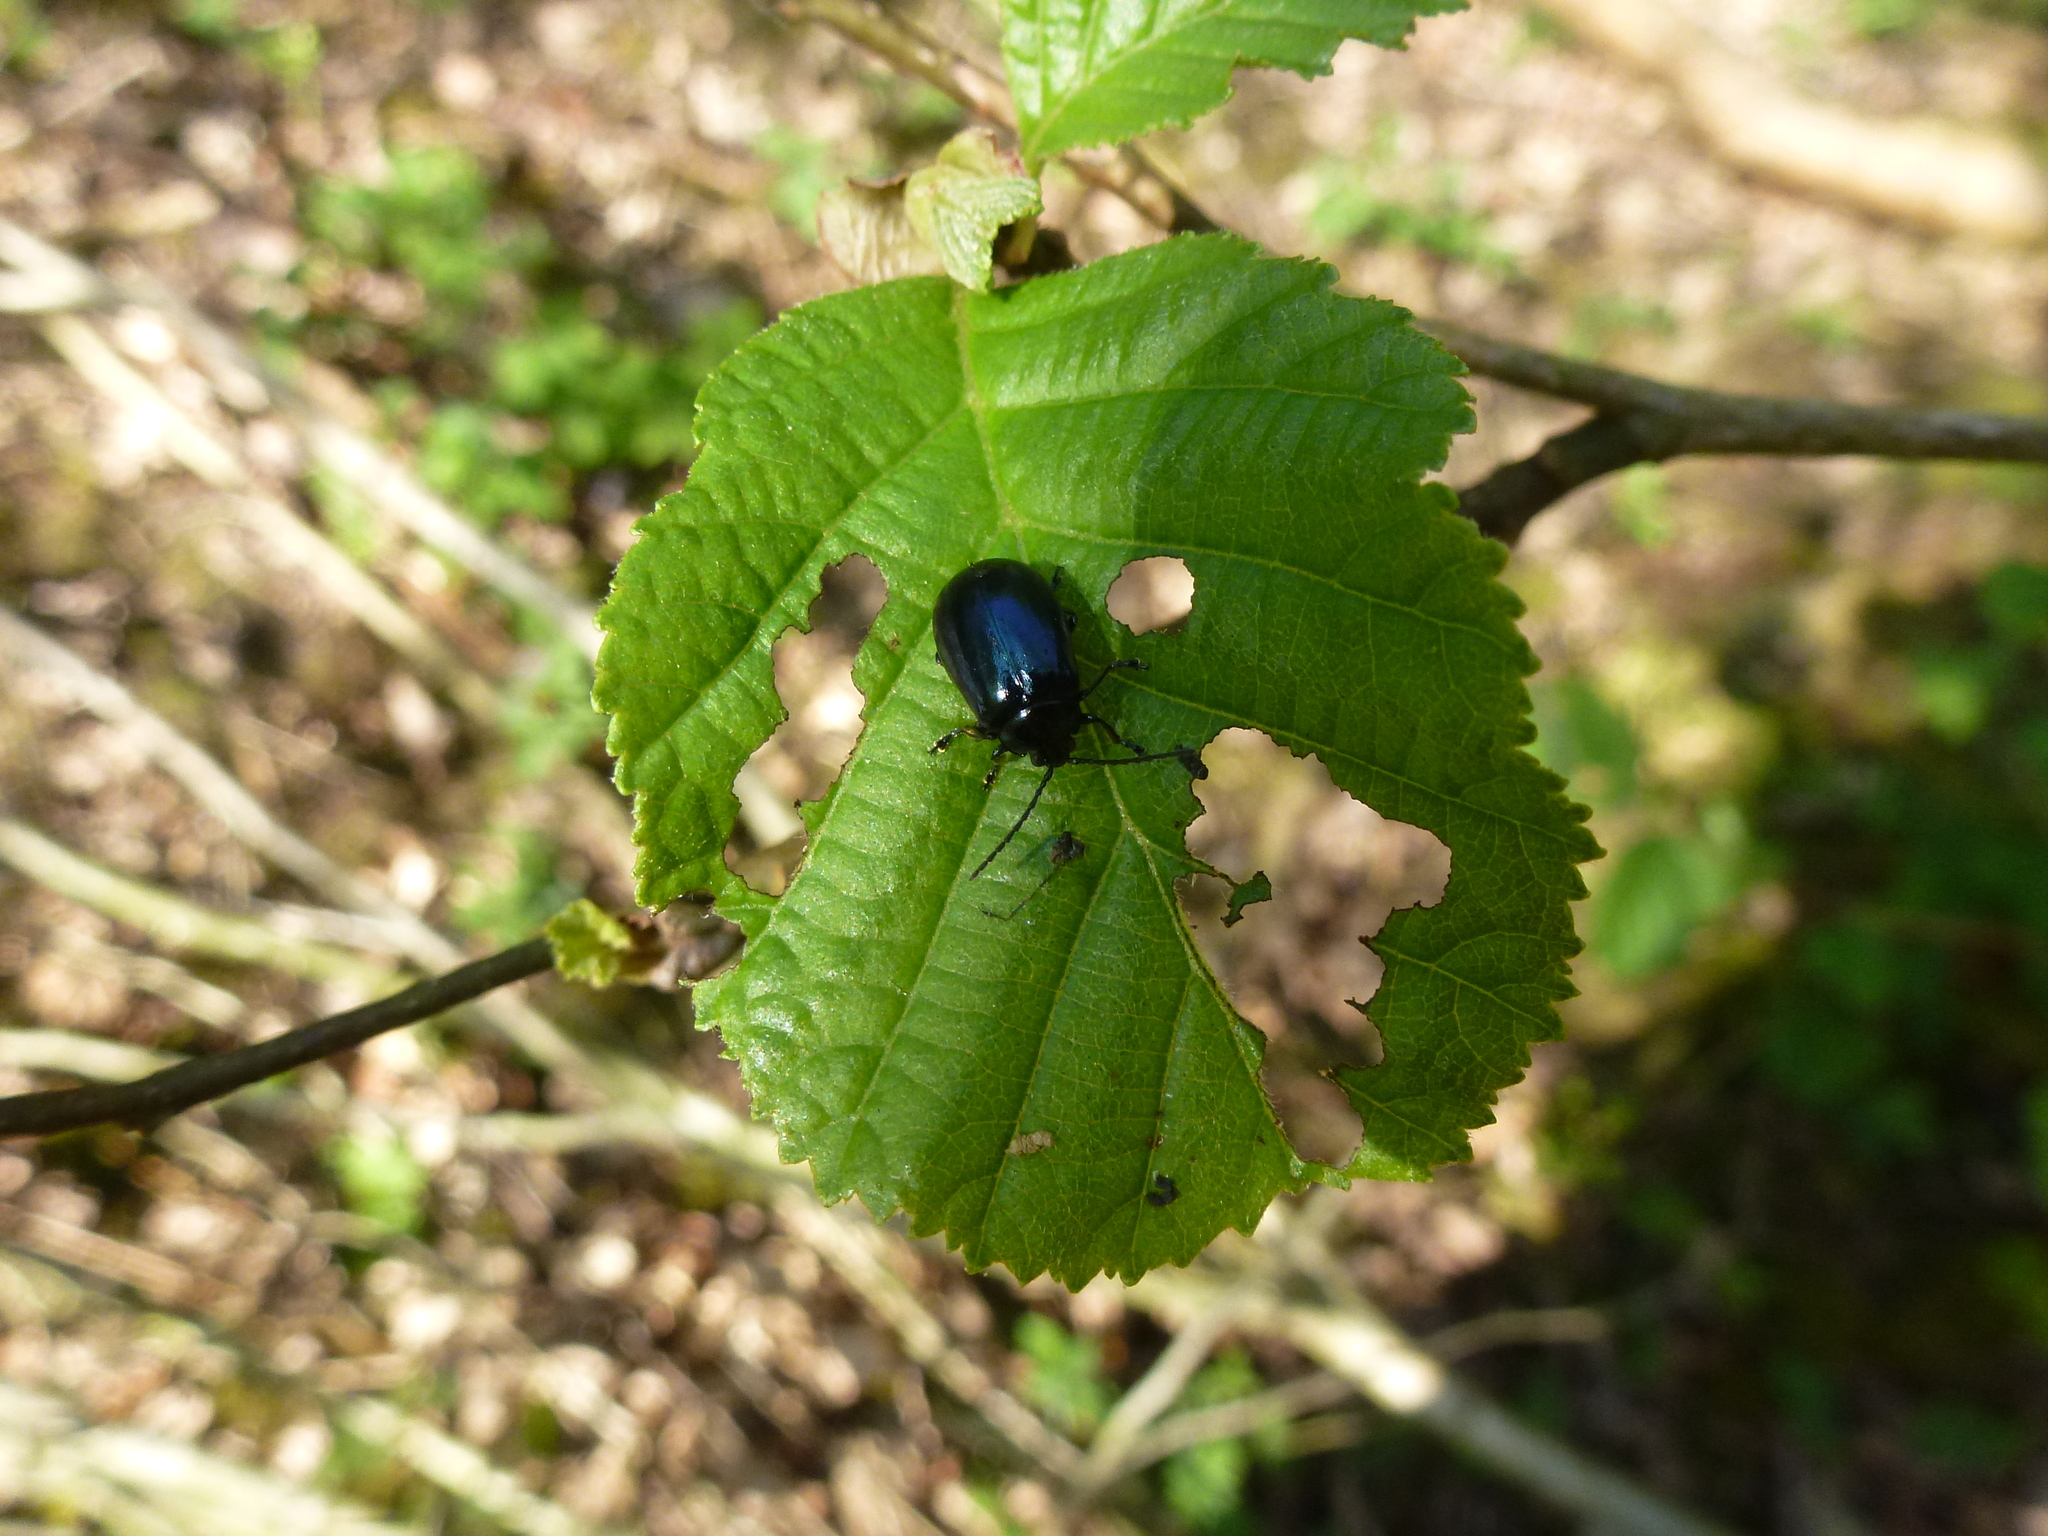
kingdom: Animalia
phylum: Arthropoda
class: Insecta
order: Coleoptera
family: Chrysomelidae
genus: Agelastica
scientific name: Agelastica alni
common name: Alder leaf beetle
